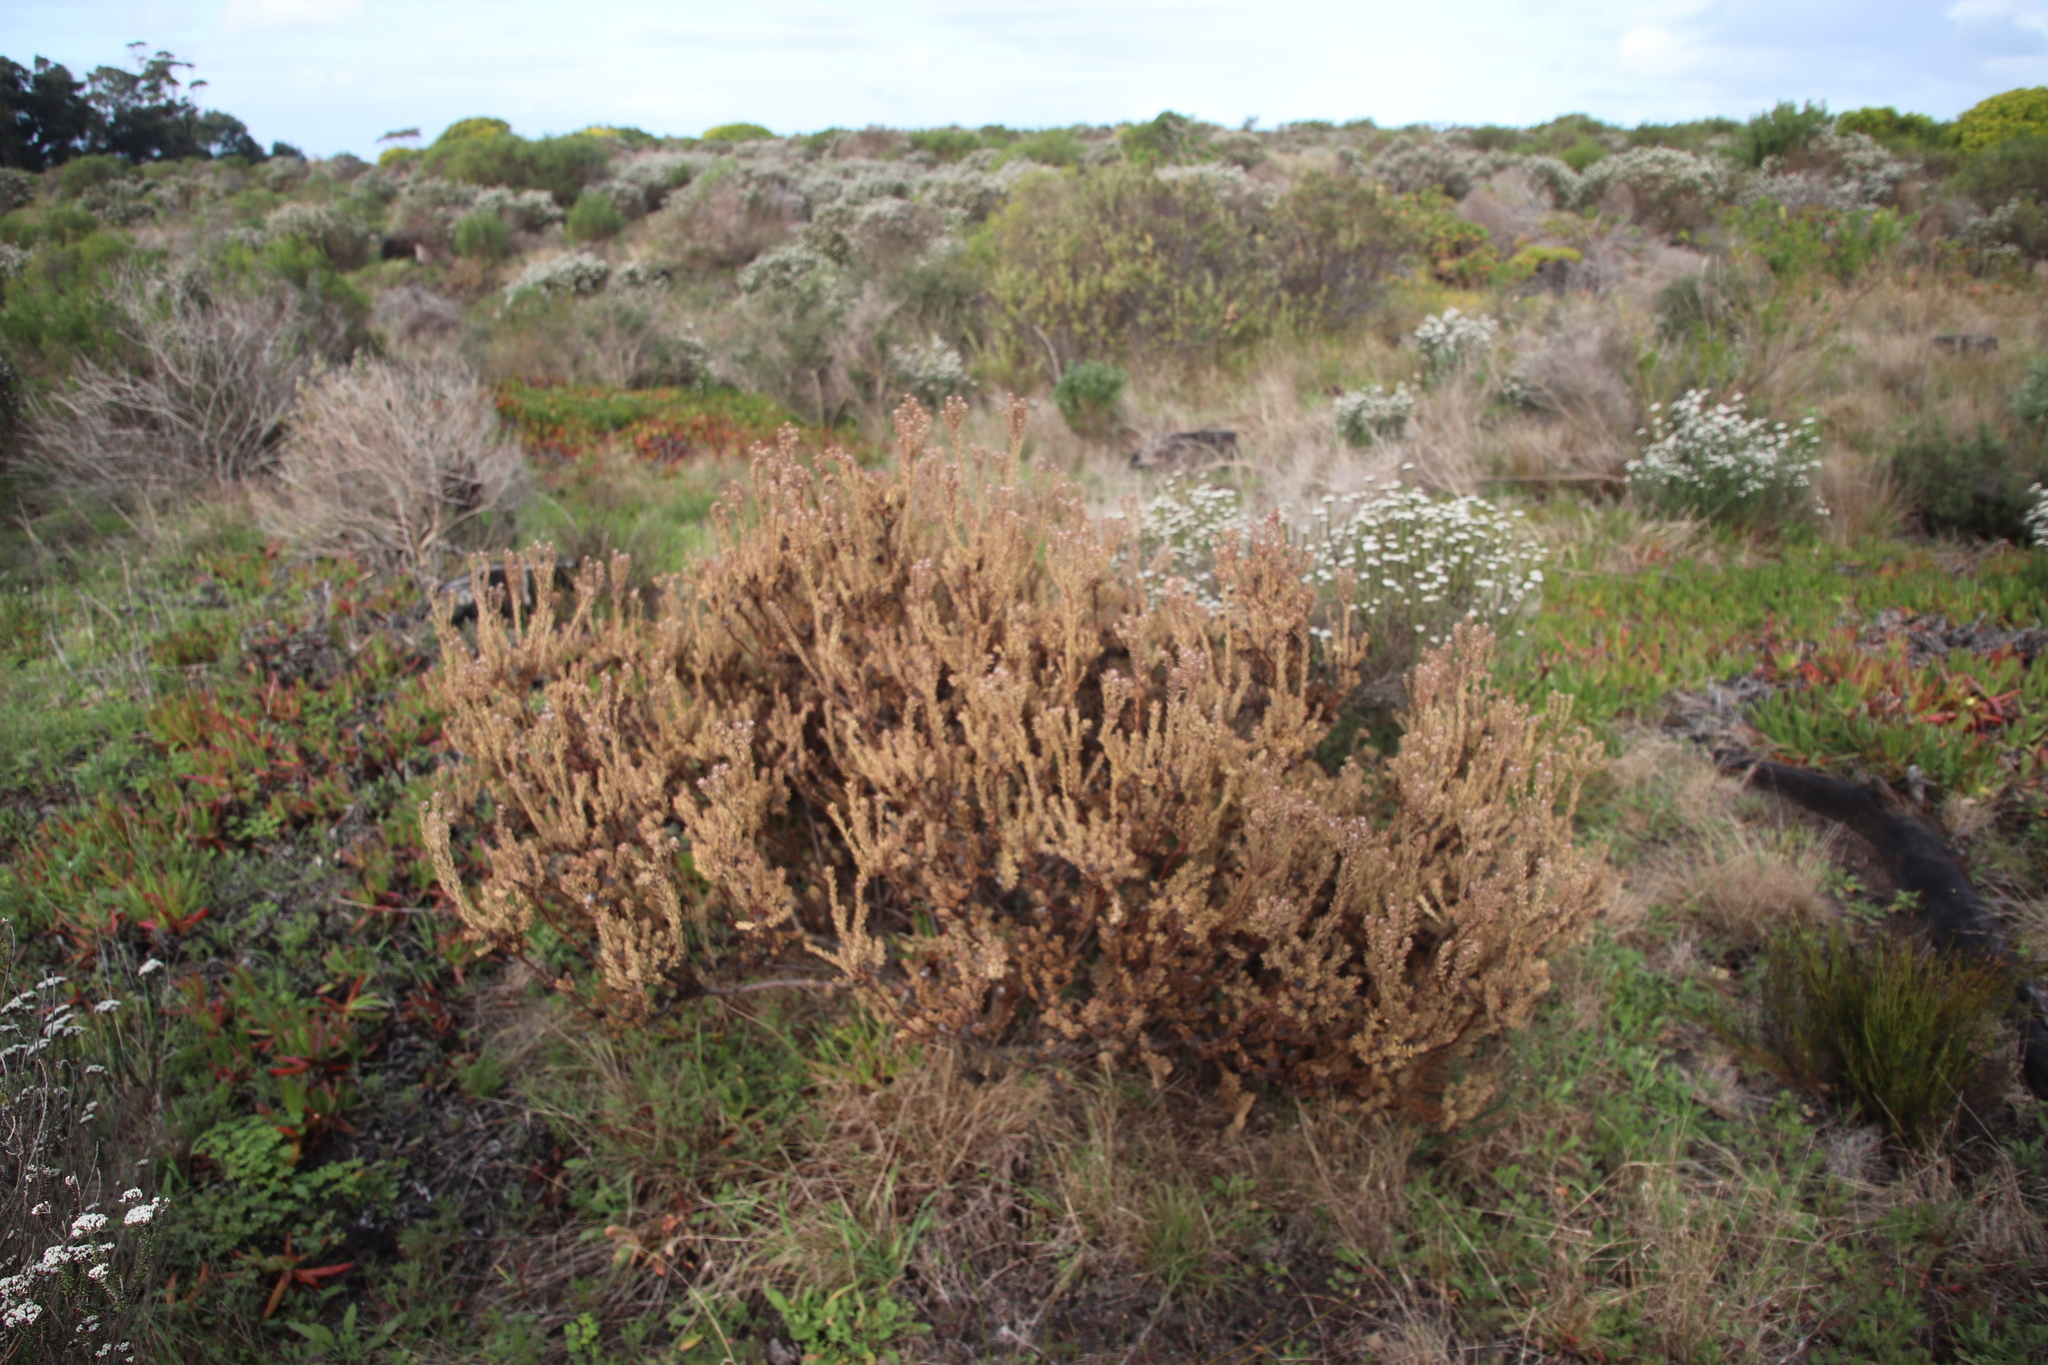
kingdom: Plantae
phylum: Tracheophyta
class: Magnoliopsida
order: Proteales
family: Proteaceae
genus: Leucadendron
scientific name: Leucadendron levisanus
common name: Cape flats conebush
